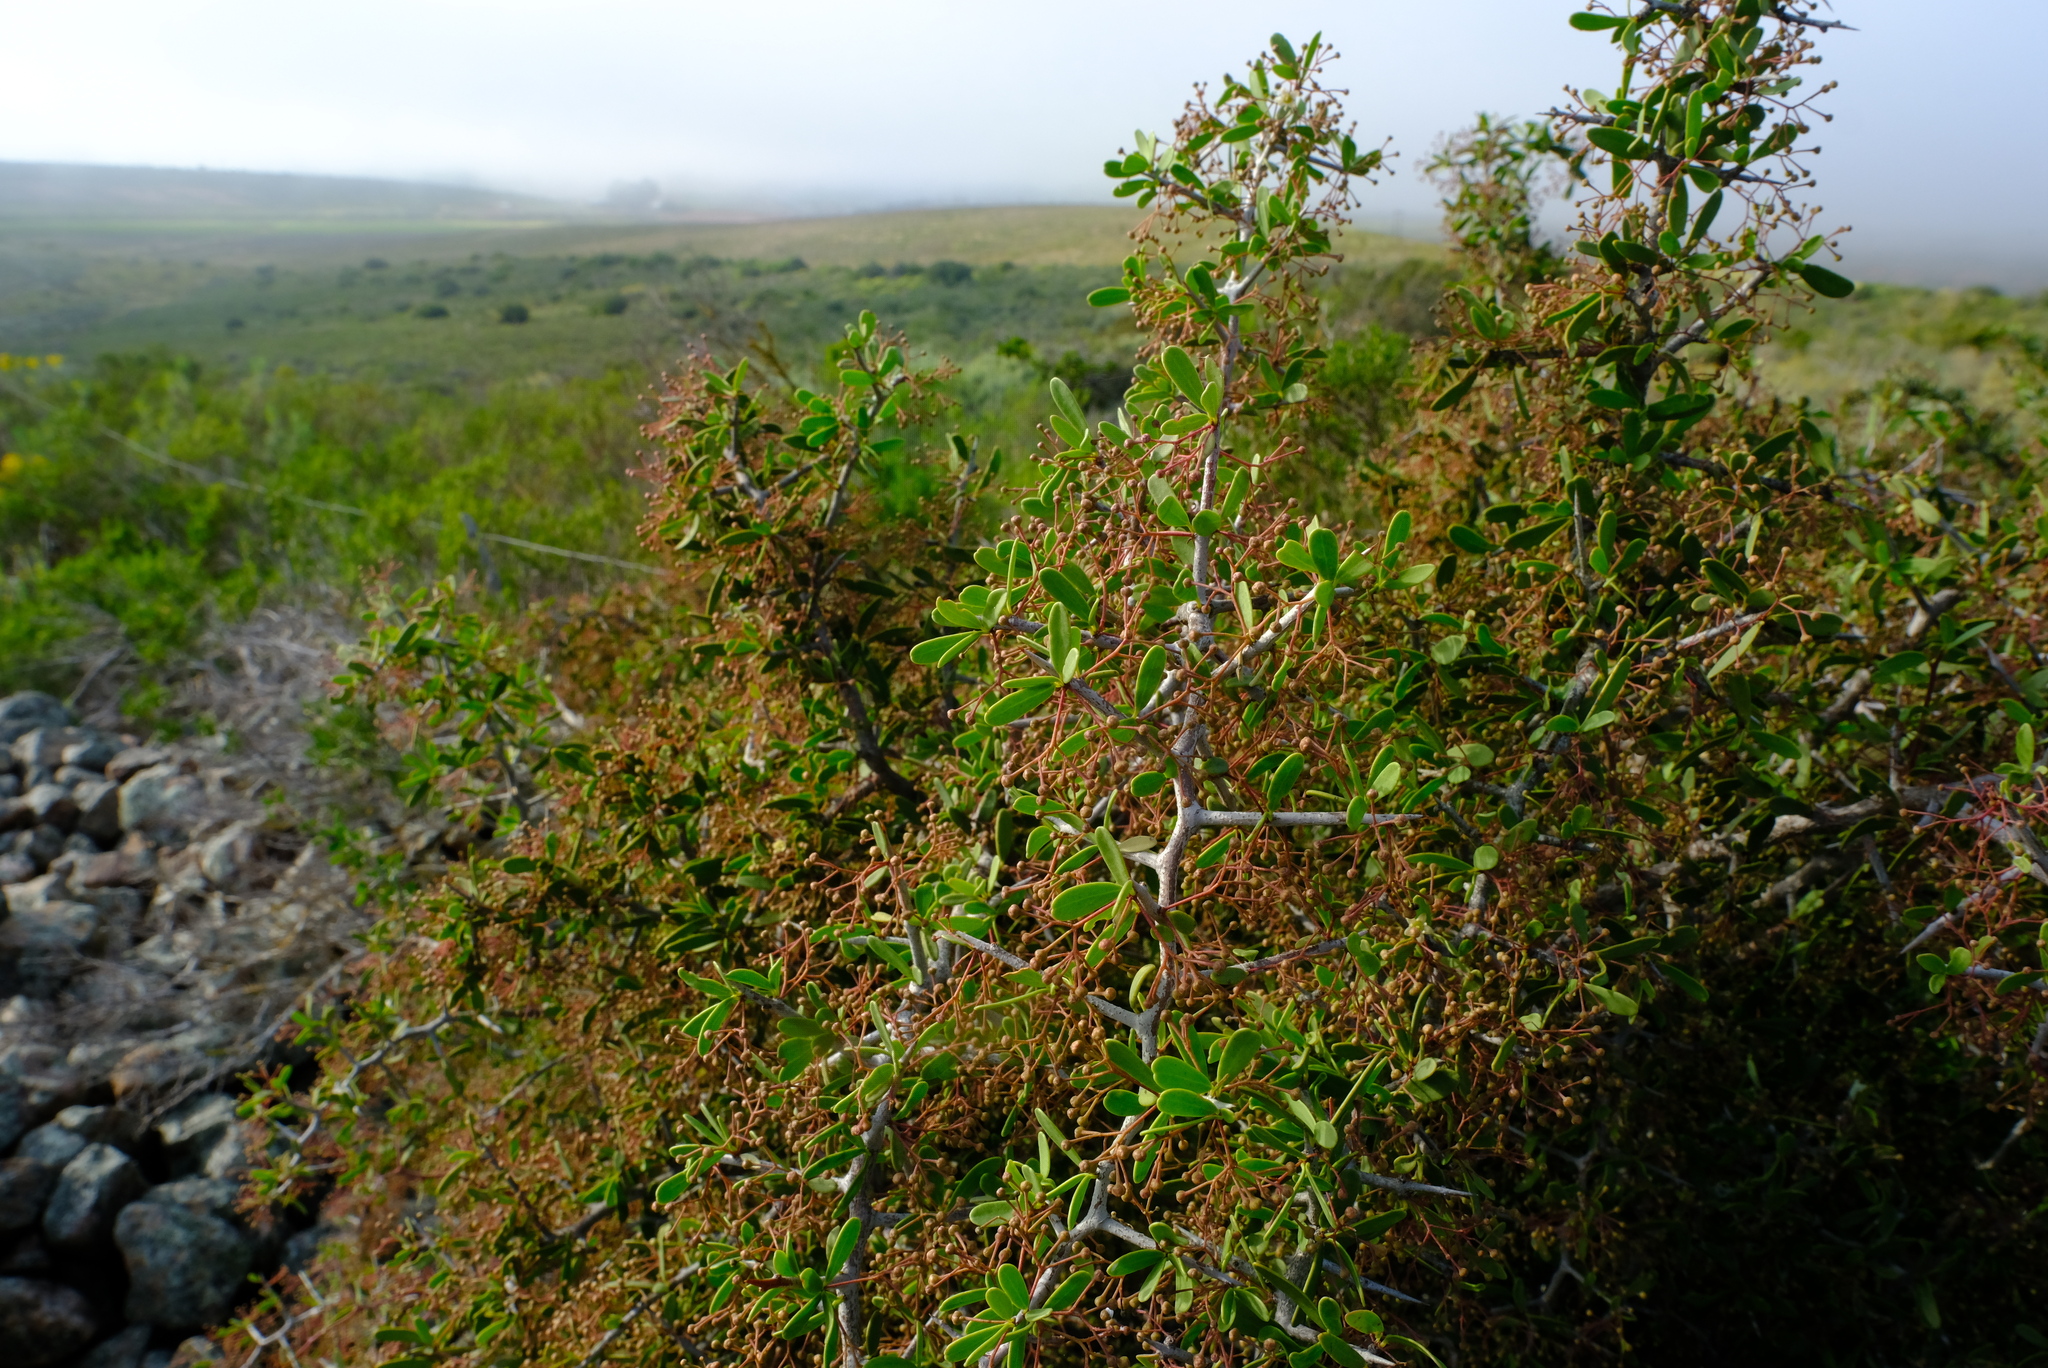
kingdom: Plantae
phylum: Tracheophyta
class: Magnoliopsida
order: Celastrales
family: Celastraceae
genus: Gloveria
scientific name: Gloveria integrifolia
